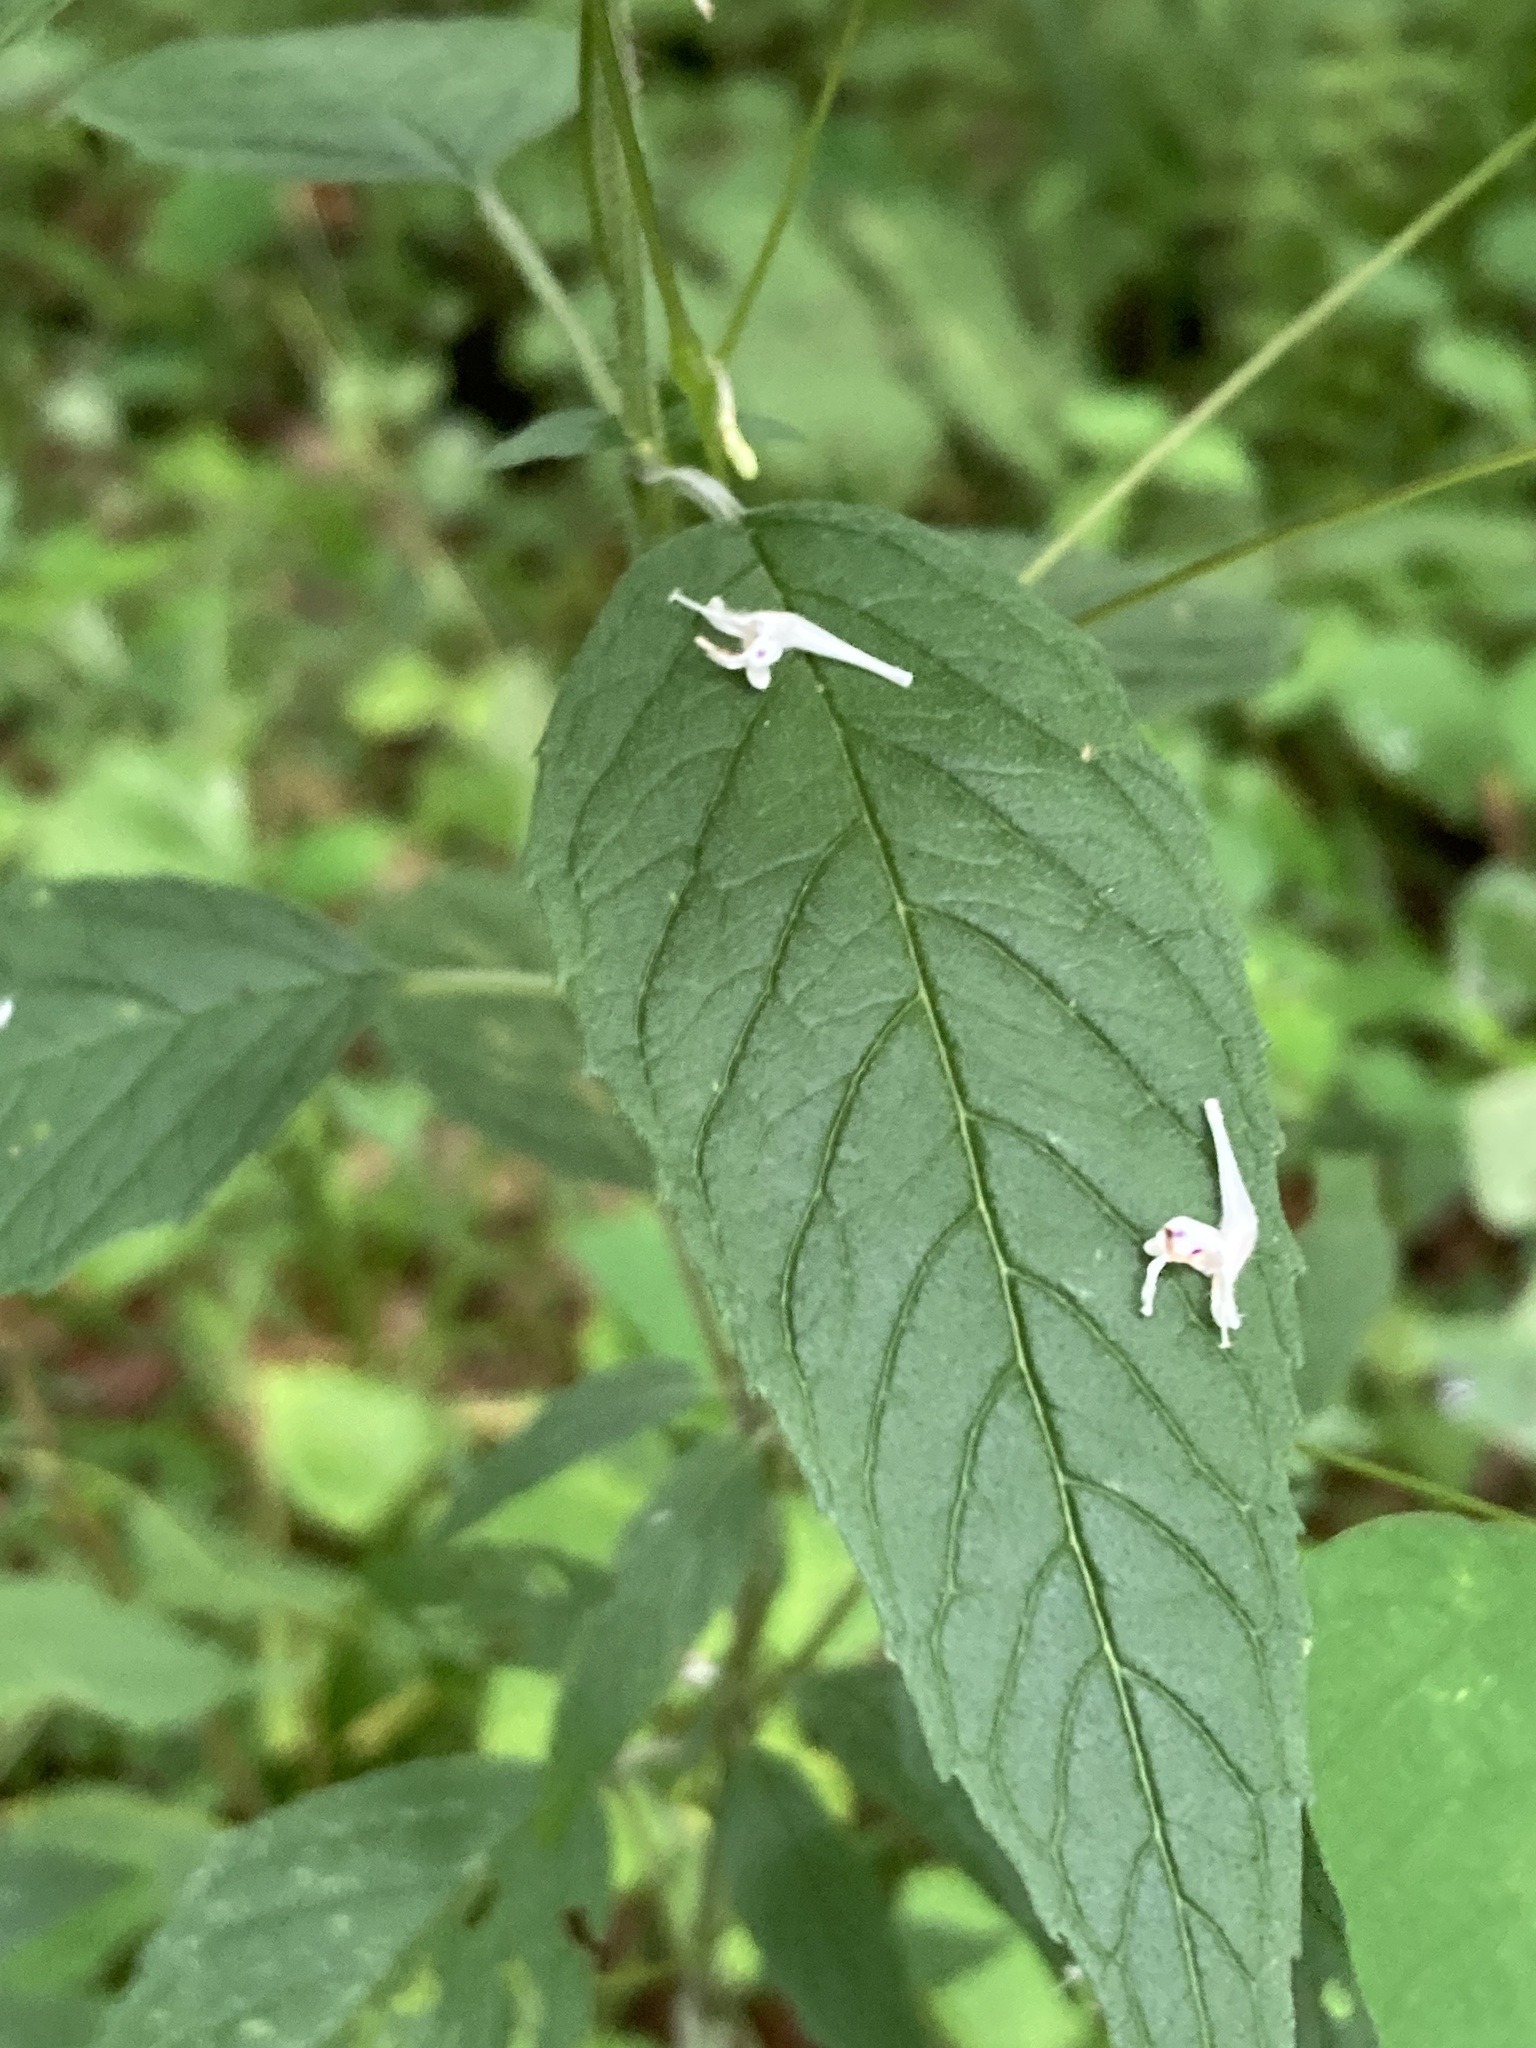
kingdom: Plantae
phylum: Tracheophyta
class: Magnoliopsida
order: Lamiales
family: Lamiaceae
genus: Blephilia
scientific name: Blephilia hirsuta
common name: Hairy blephilia
